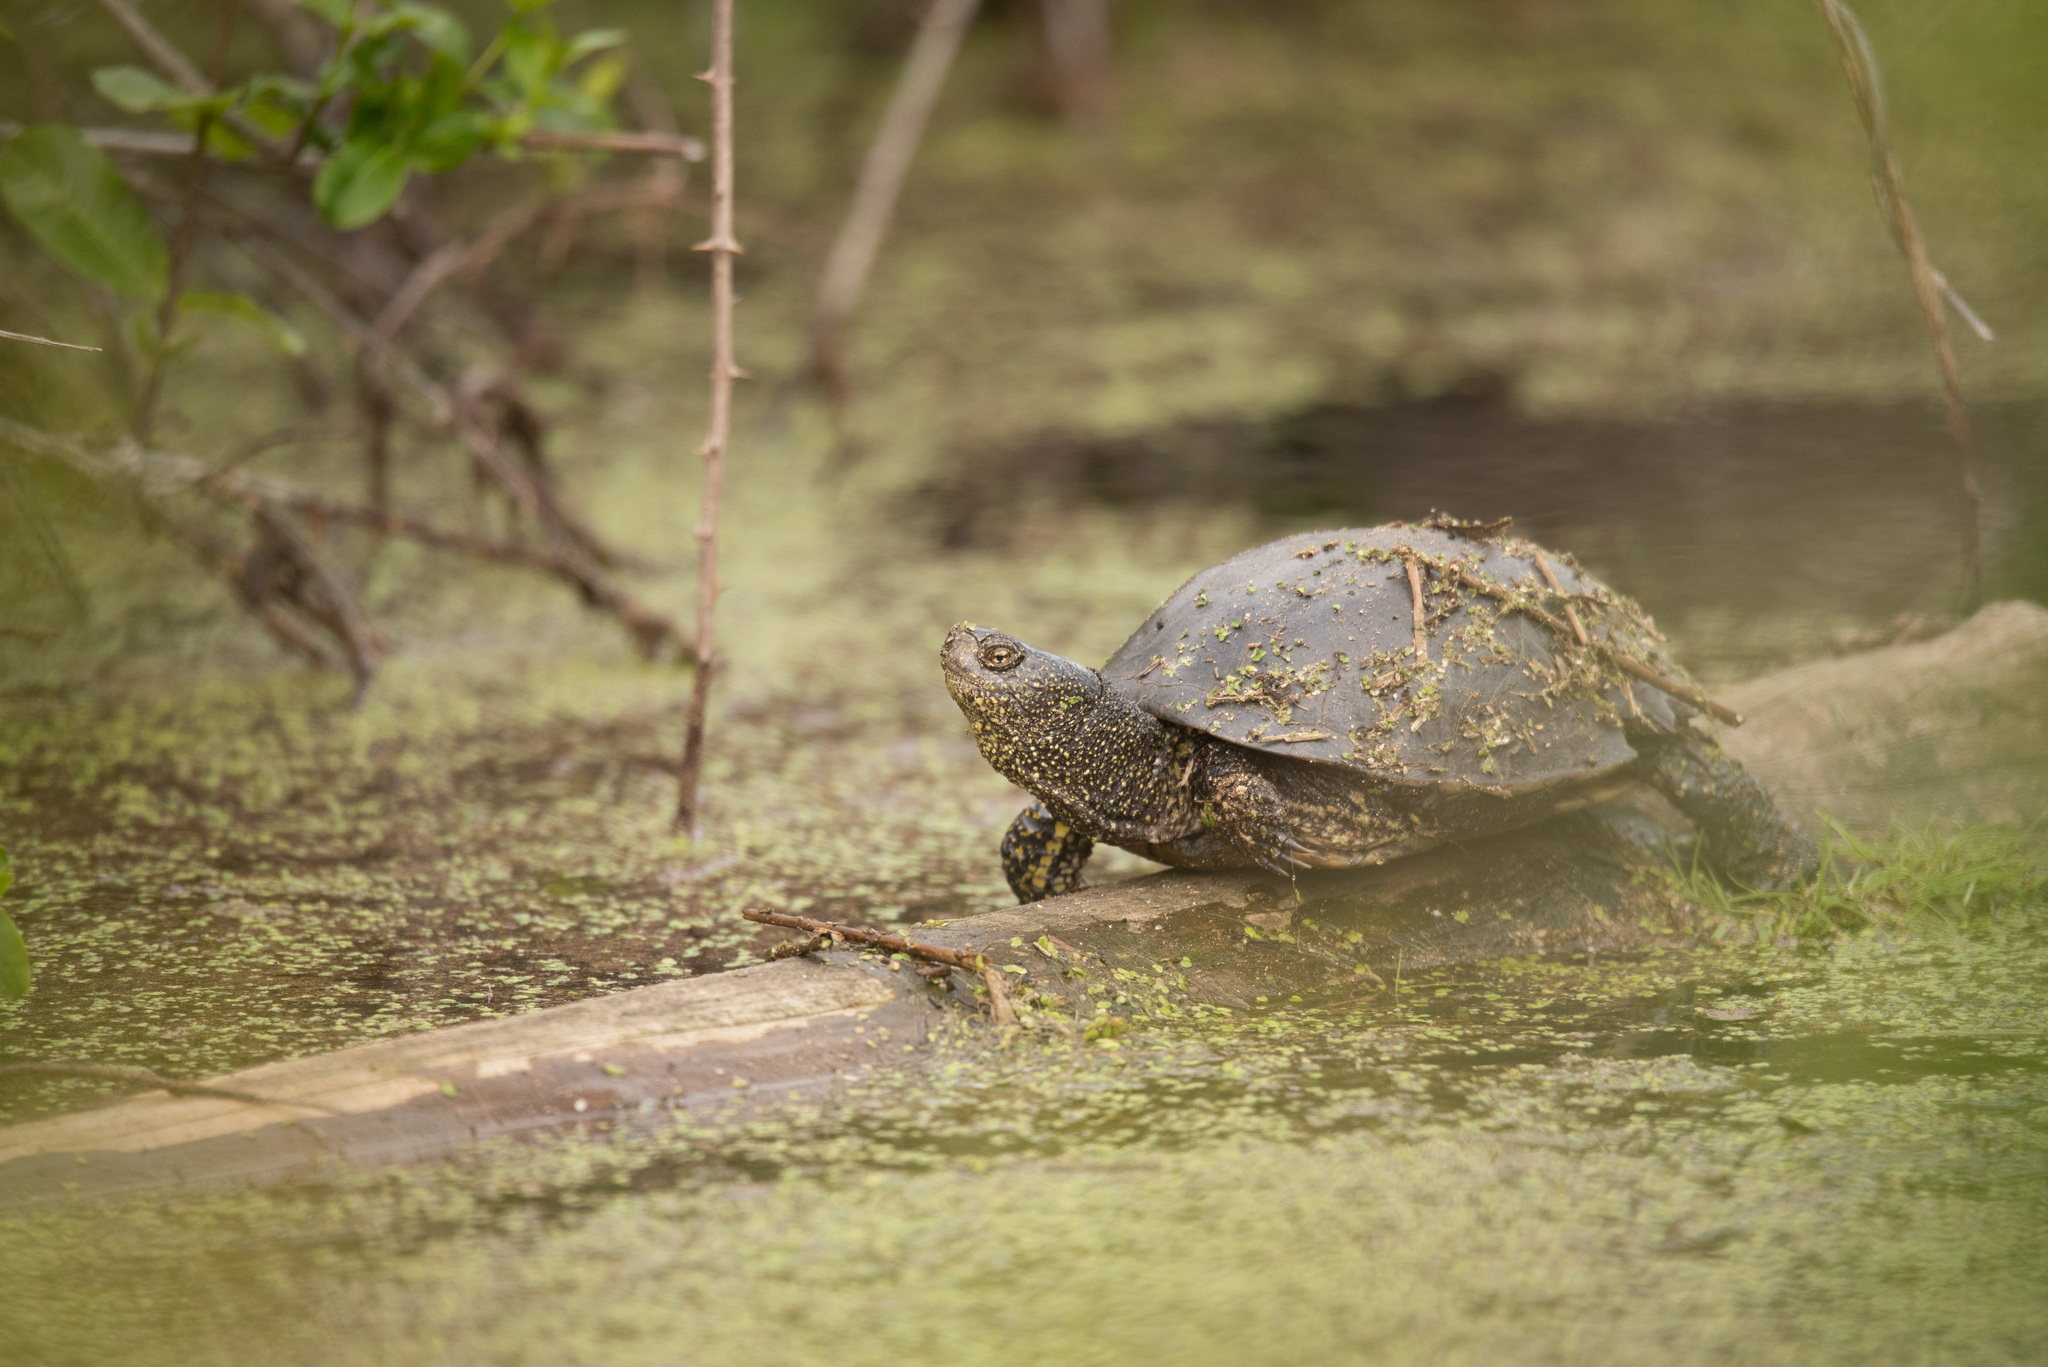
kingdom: Animalia
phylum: Chordata
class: Testudines
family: Emydidae
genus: Emys
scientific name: Emys orbicularis
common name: European pond turtle
